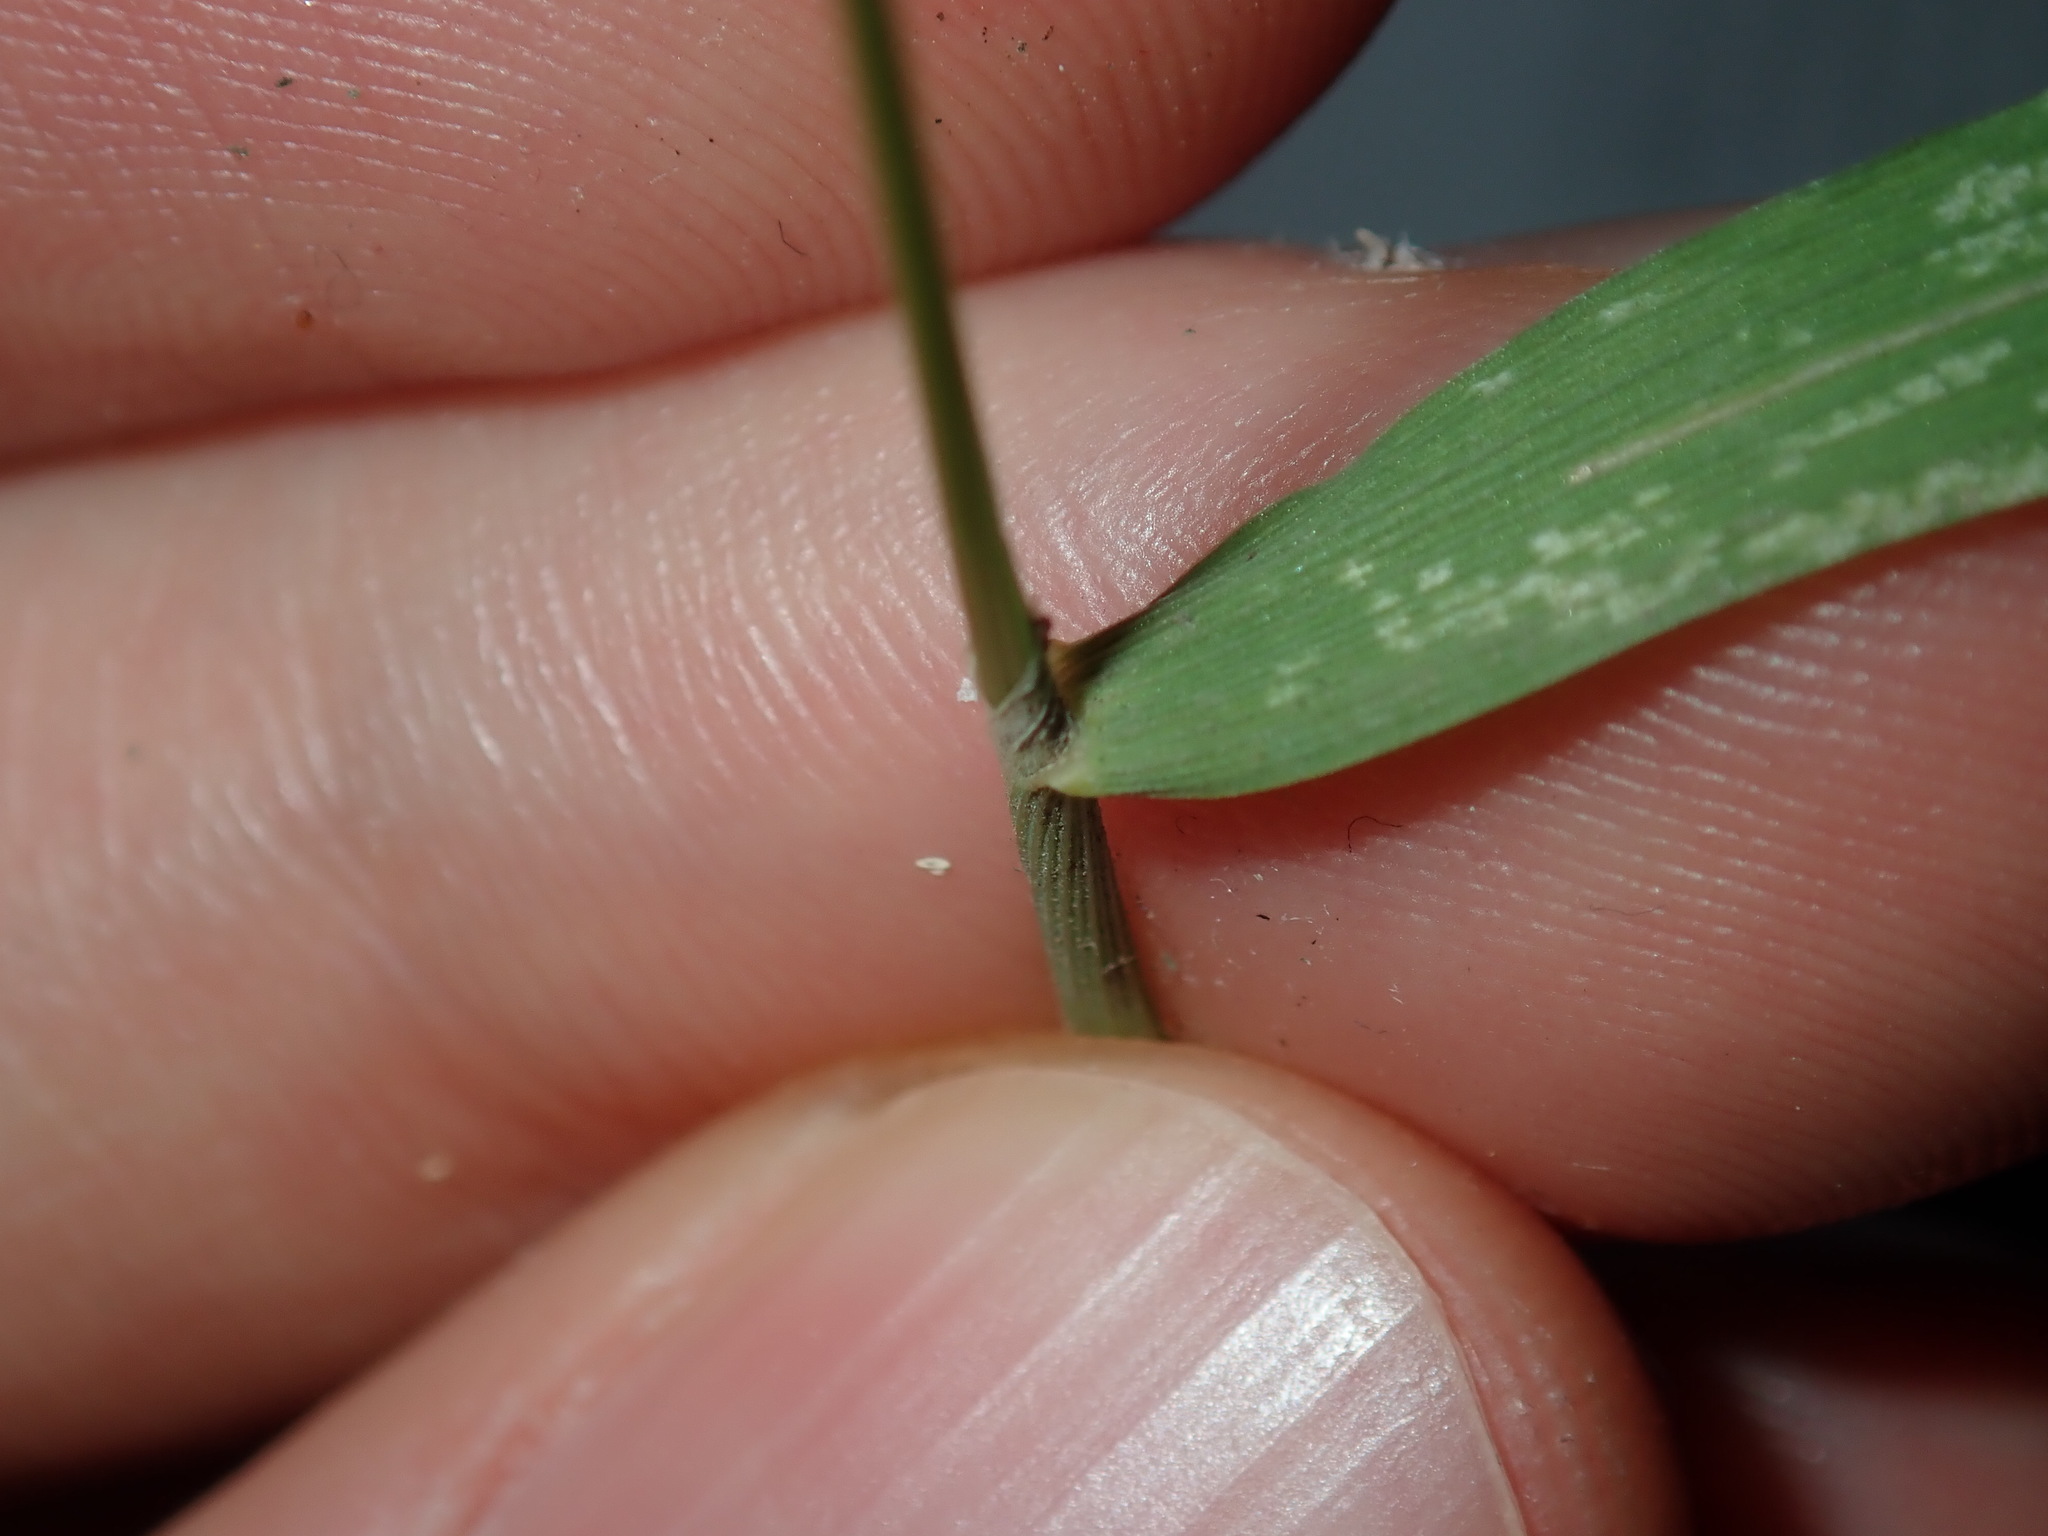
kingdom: Plantae
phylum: Tracheophyta
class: Liliopsida
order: Poales
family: Poaceae
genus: Polypogon
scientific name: Polypogon viridis
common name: Water bent
